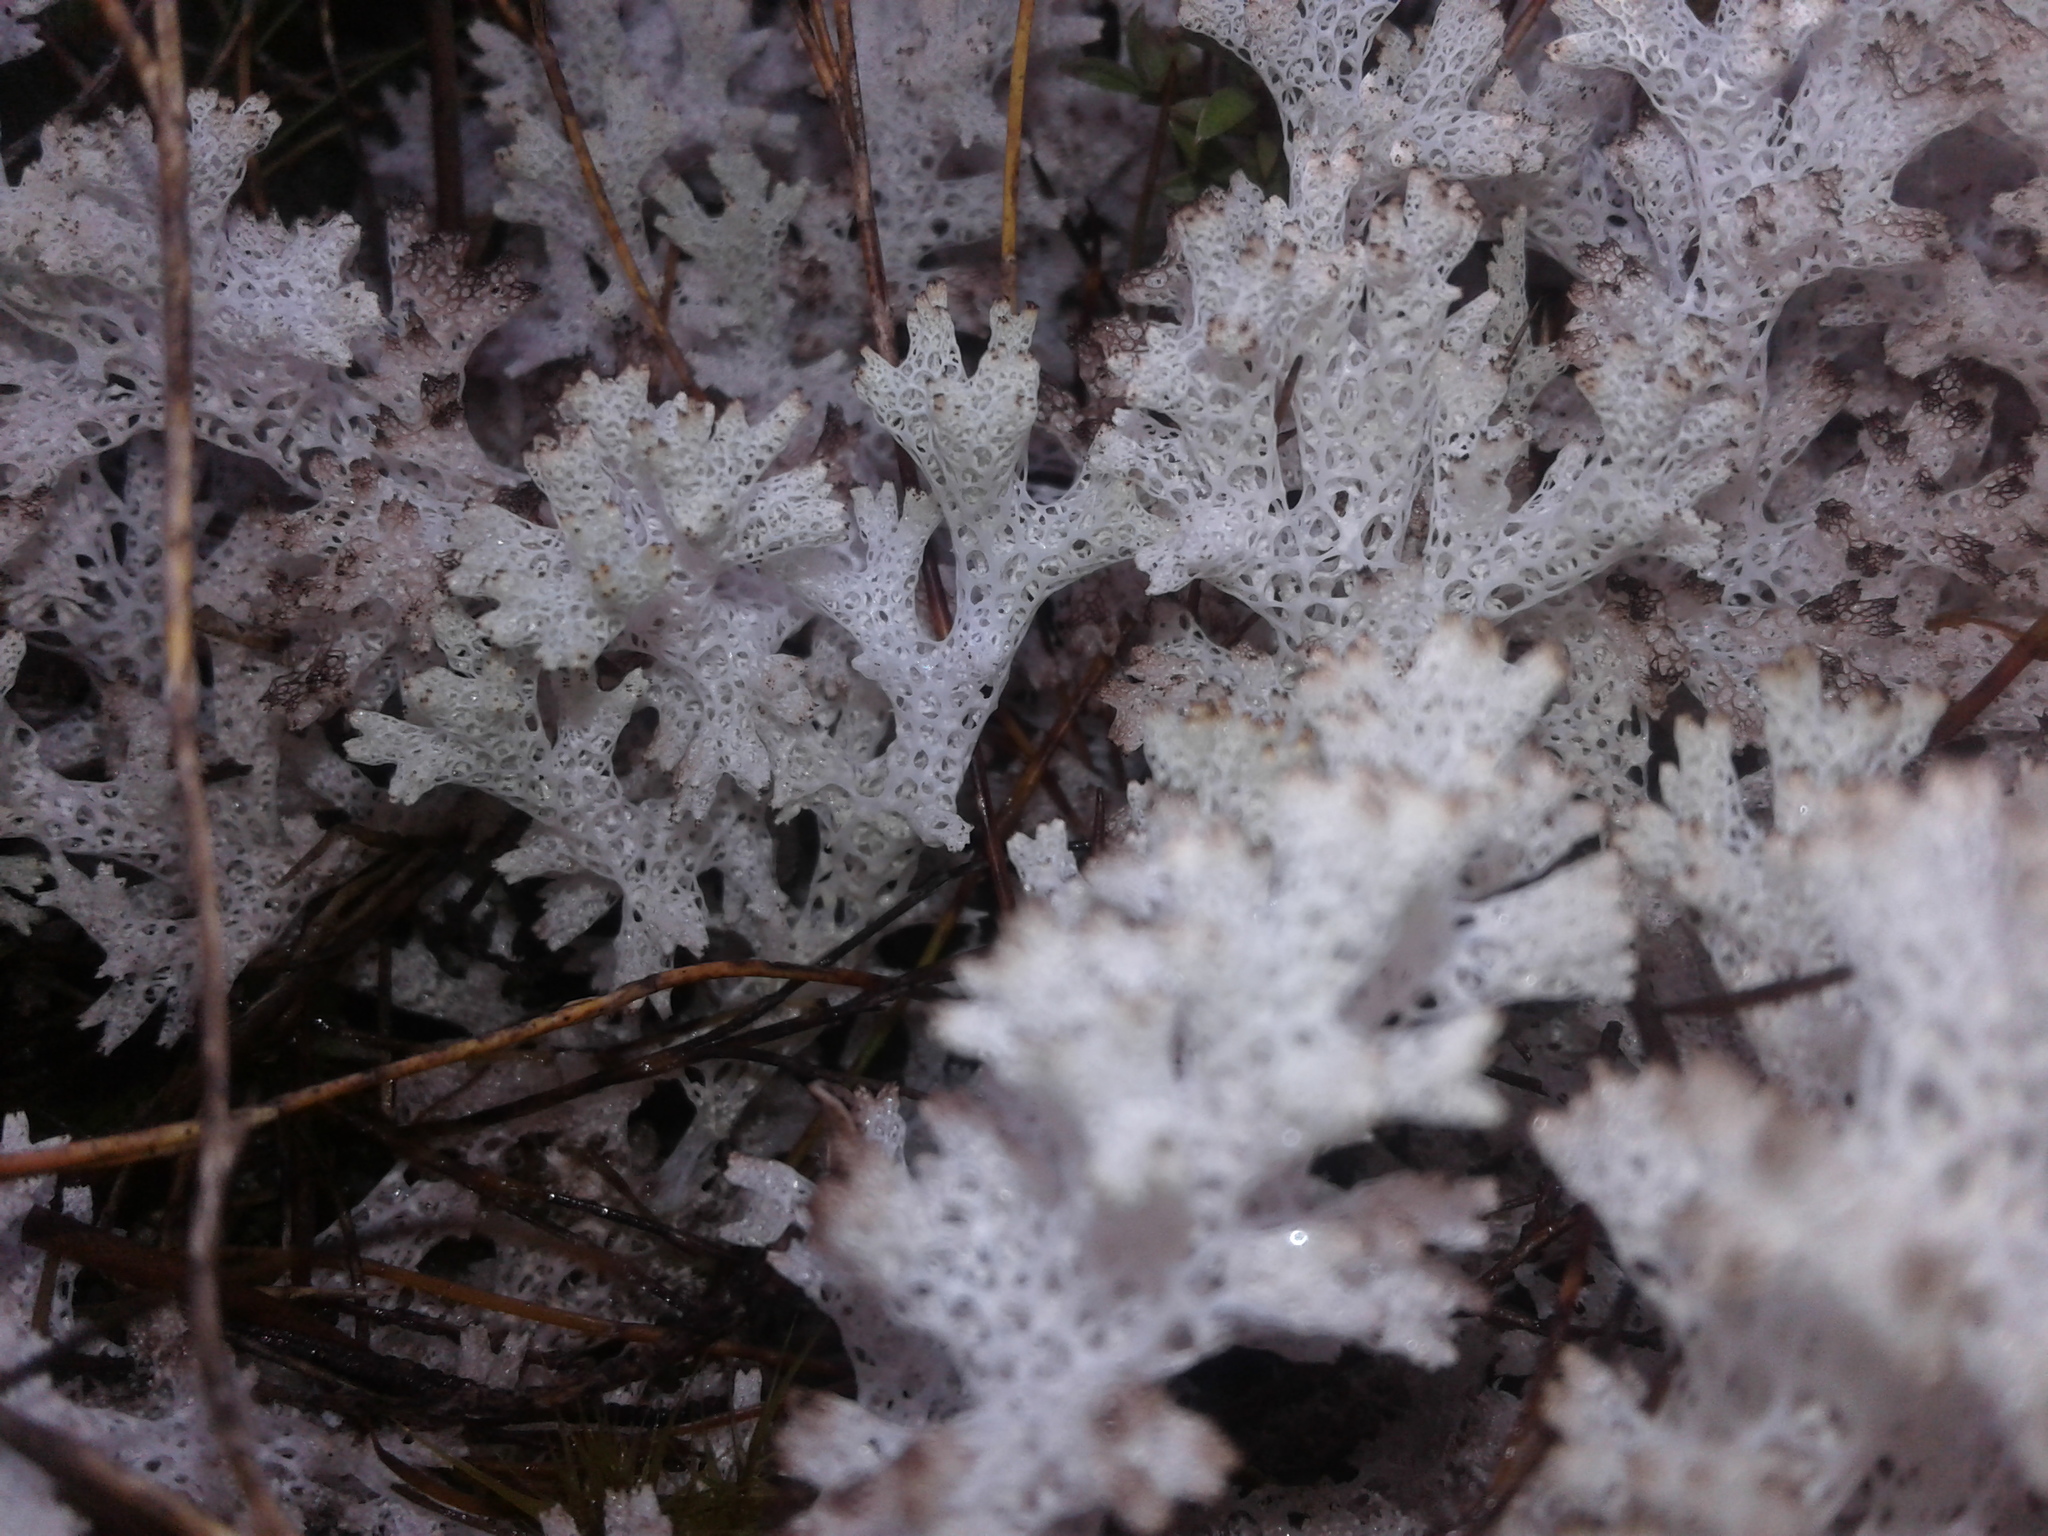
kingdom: Fungi
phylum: Ascomycota
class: Lecanoromycetes
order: Lecanorales
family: Cladoniaceae
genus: Pulchrocladia
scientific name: Pulchrocladia retipora
